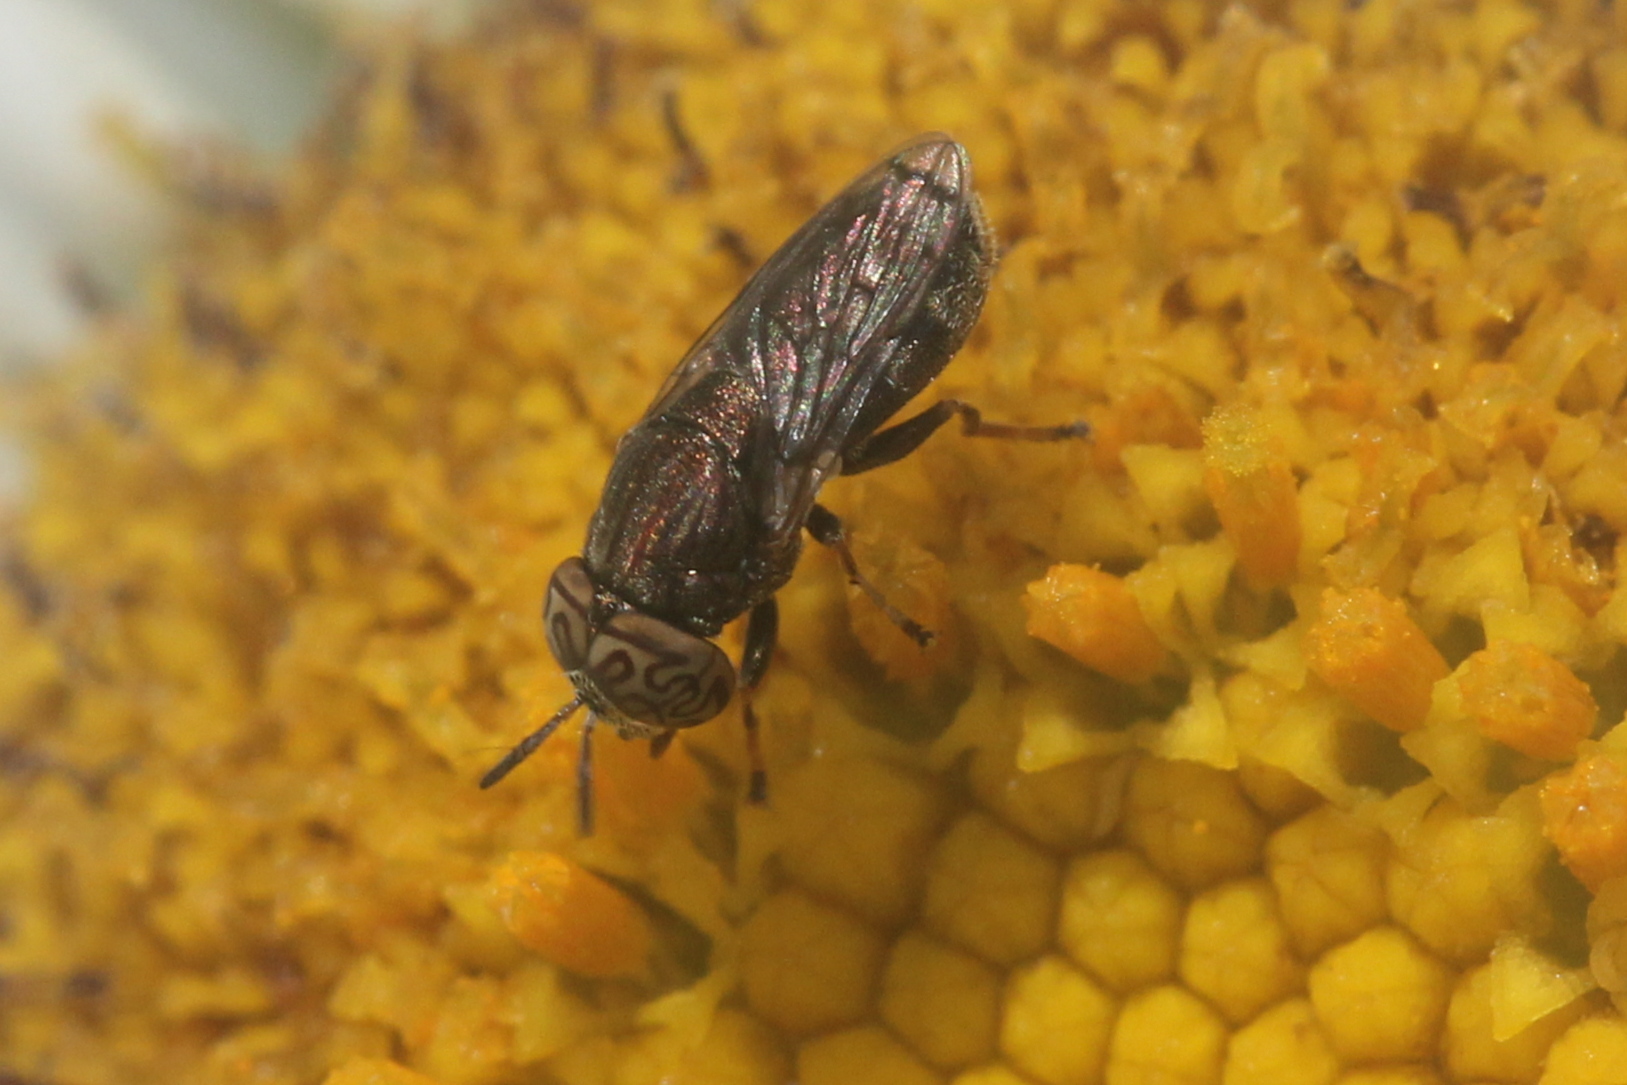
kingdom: Animalia
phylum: Arthropoda
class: Insecta
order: Diptera
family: Syrphidae
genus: Orthonevra
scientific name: Orthonevra nitida
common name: Wavy mucksucker
